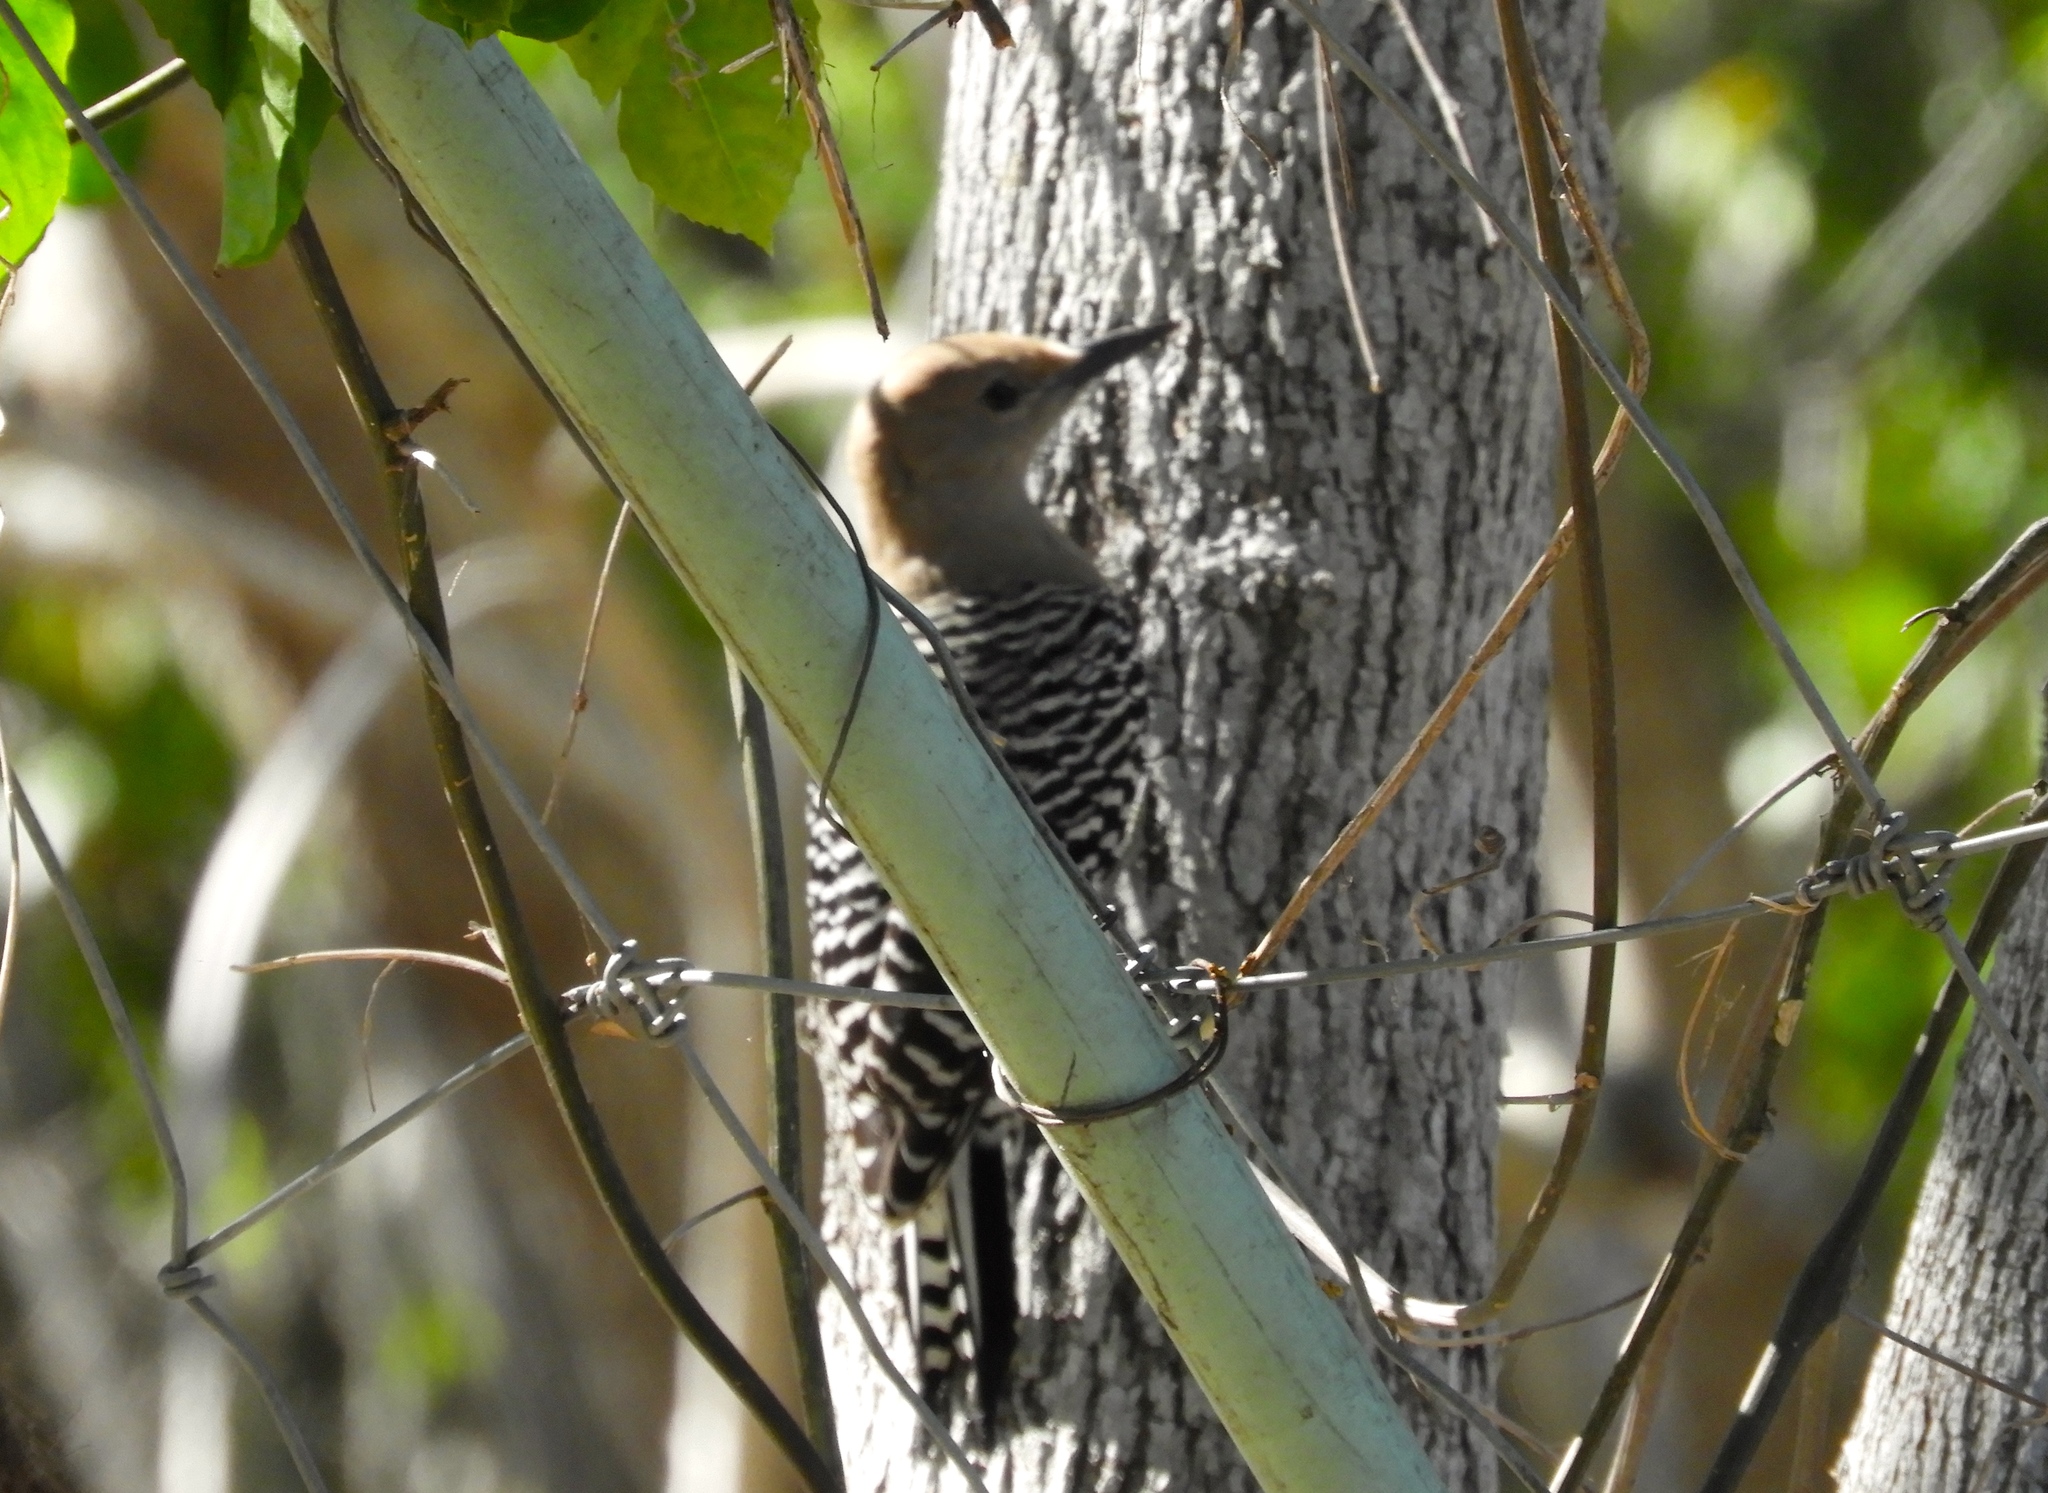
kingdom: Animalia
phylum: Chordata
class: Aves
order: Piciformes
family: Picidae
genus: Melanerpes
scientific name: Melanerpes uropygialis
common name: Gila woodpecker
